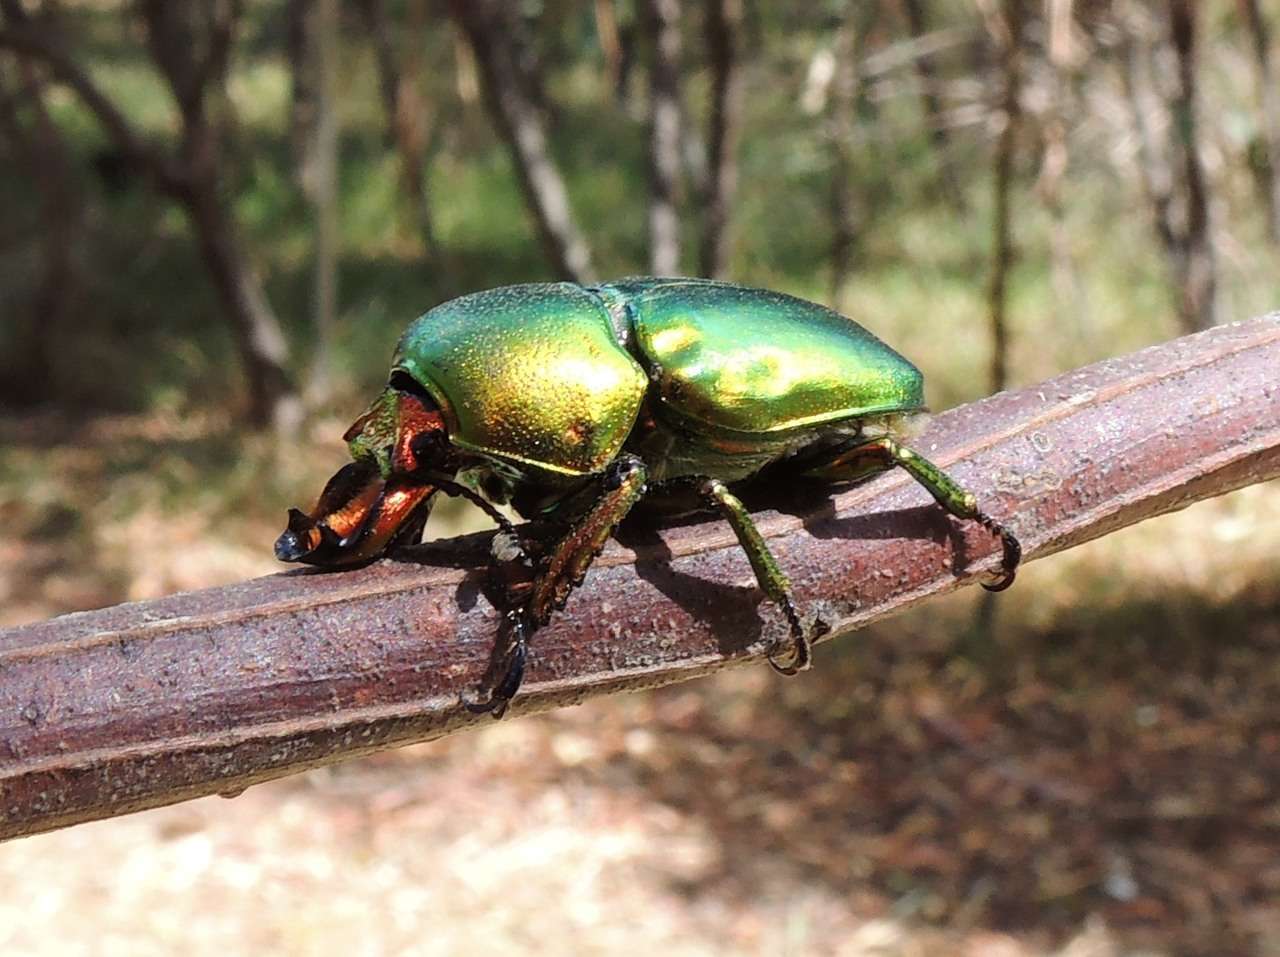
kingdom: Animalia
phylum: Arthropoda
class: Insecta
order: Coleoptera
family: Lucanidae
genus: Lamprima
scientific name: Lamprima aurata
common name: Golden stag beetle
